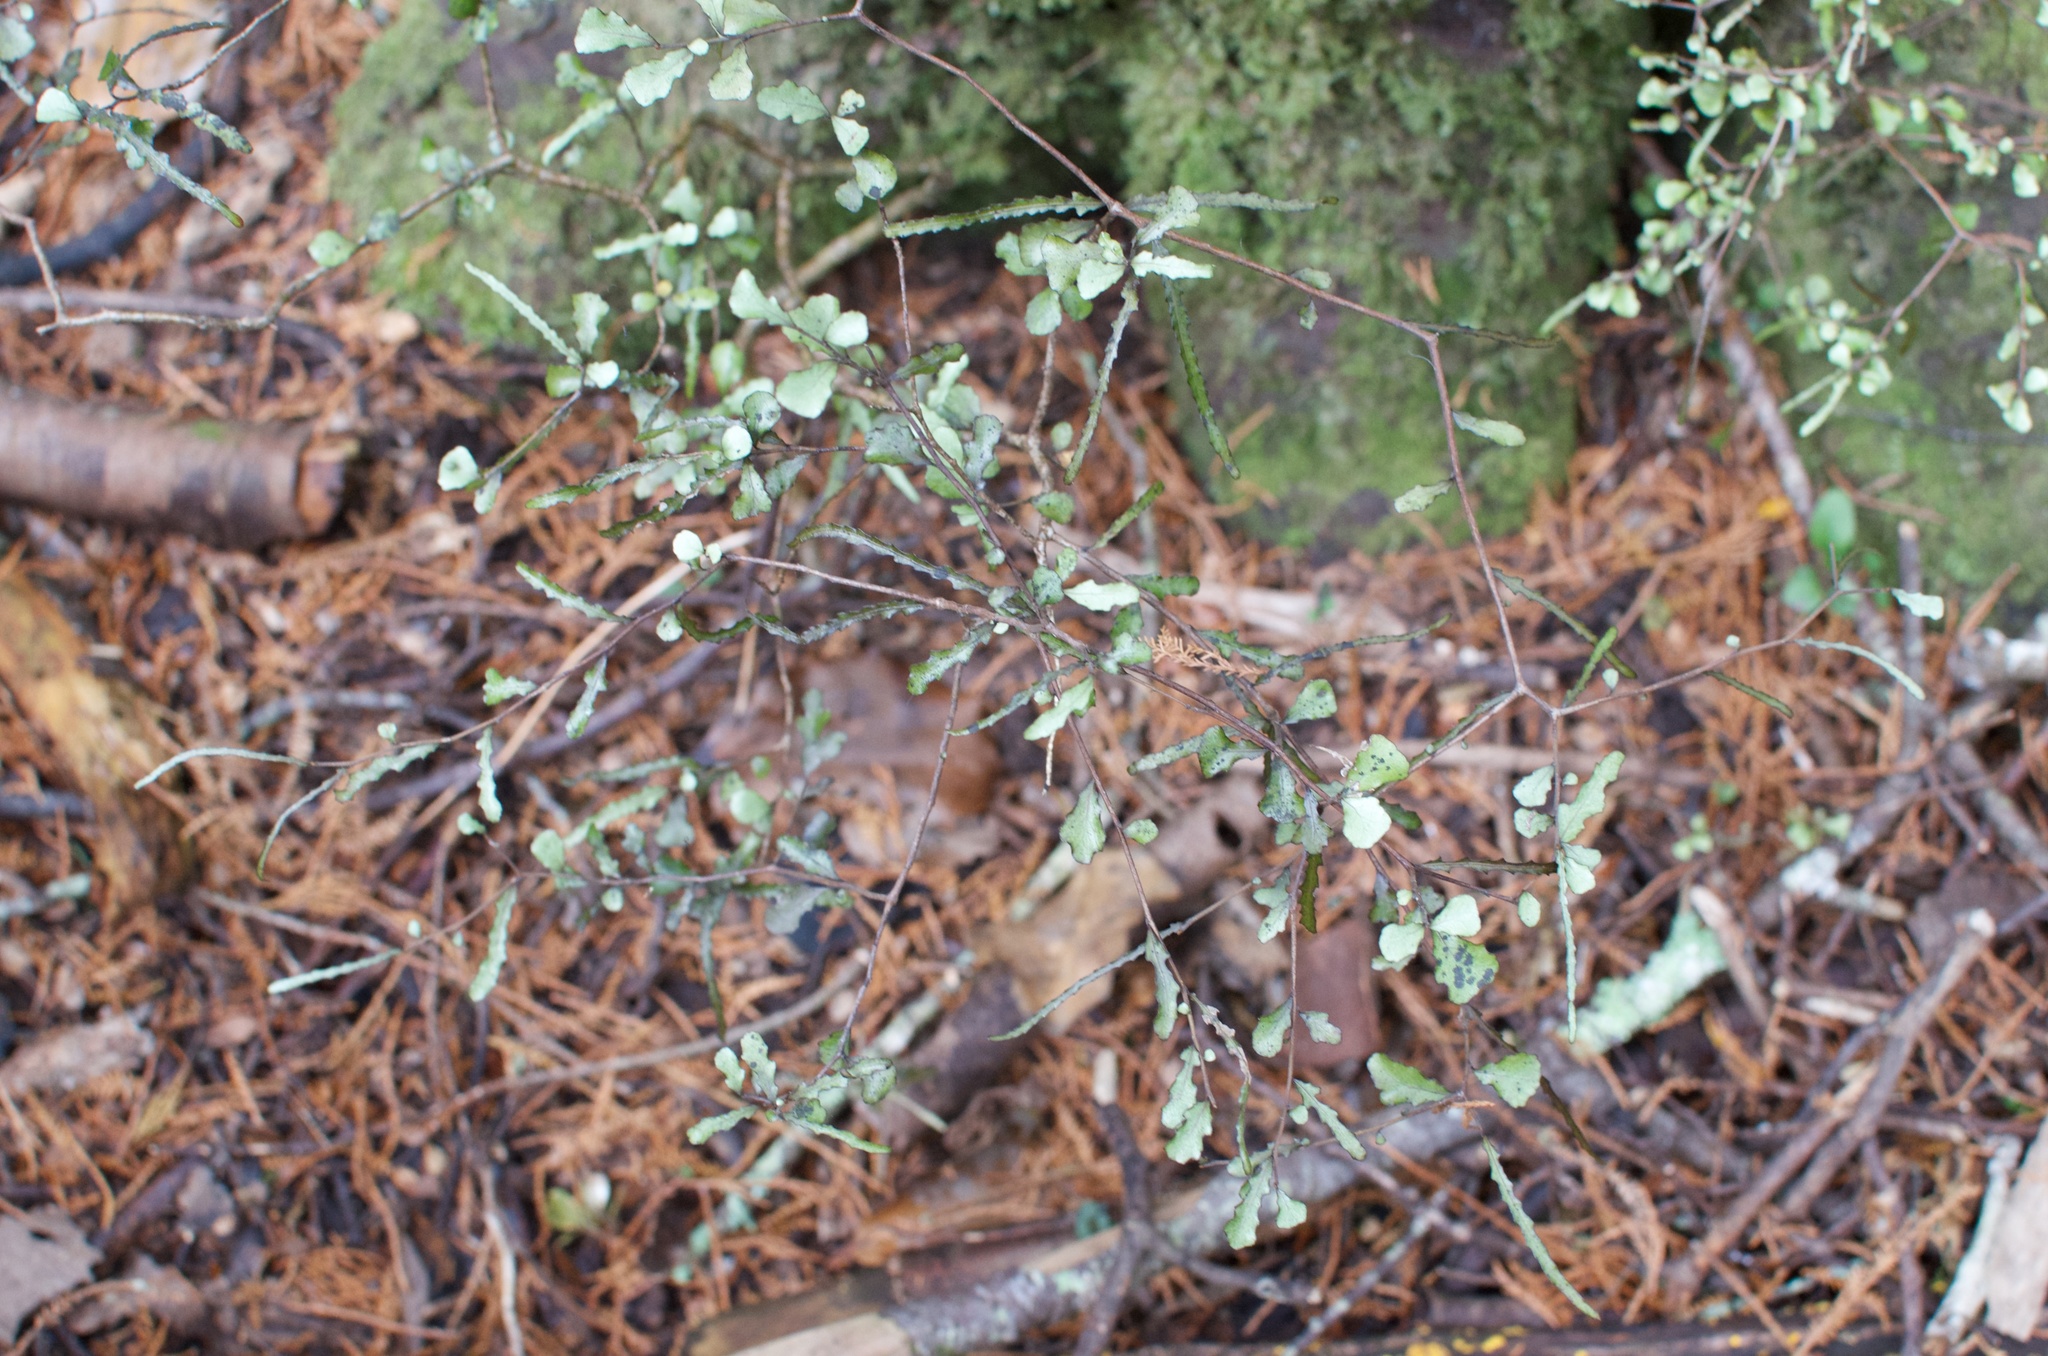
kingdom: Plantae
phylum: Tracheophyta
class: Magnoliopsida
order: Oxalidales
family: Elaeocarpaceae
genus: Elaeocarpus
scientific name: Elaeocarpus hookerianus
